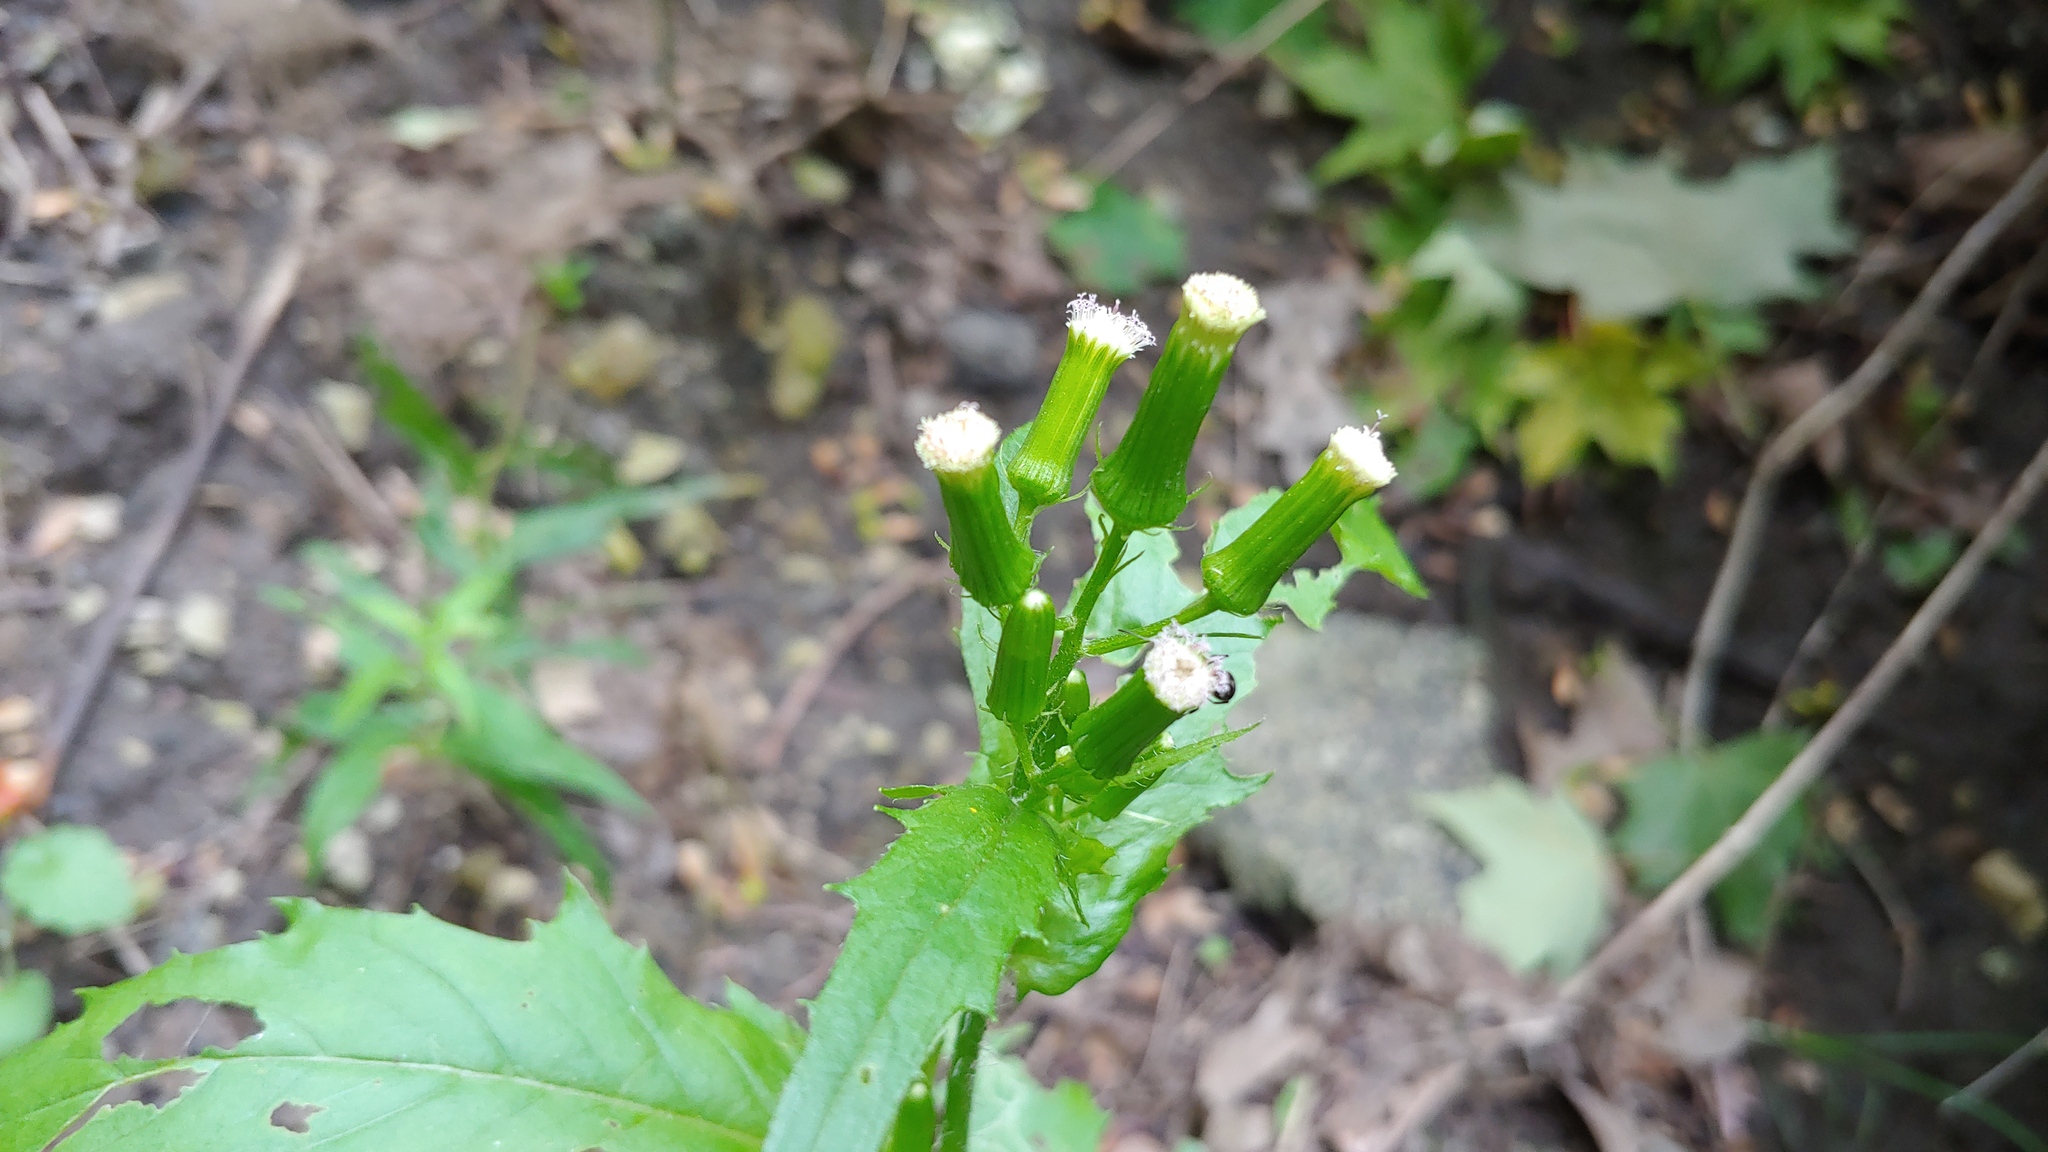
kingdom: Plantae
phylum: Tracheophyta
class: Magnoliopsida
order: Asterales
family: Asteraceae
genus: Erechtites
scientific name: Erechtites hieraciifolius
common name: American burnweed
